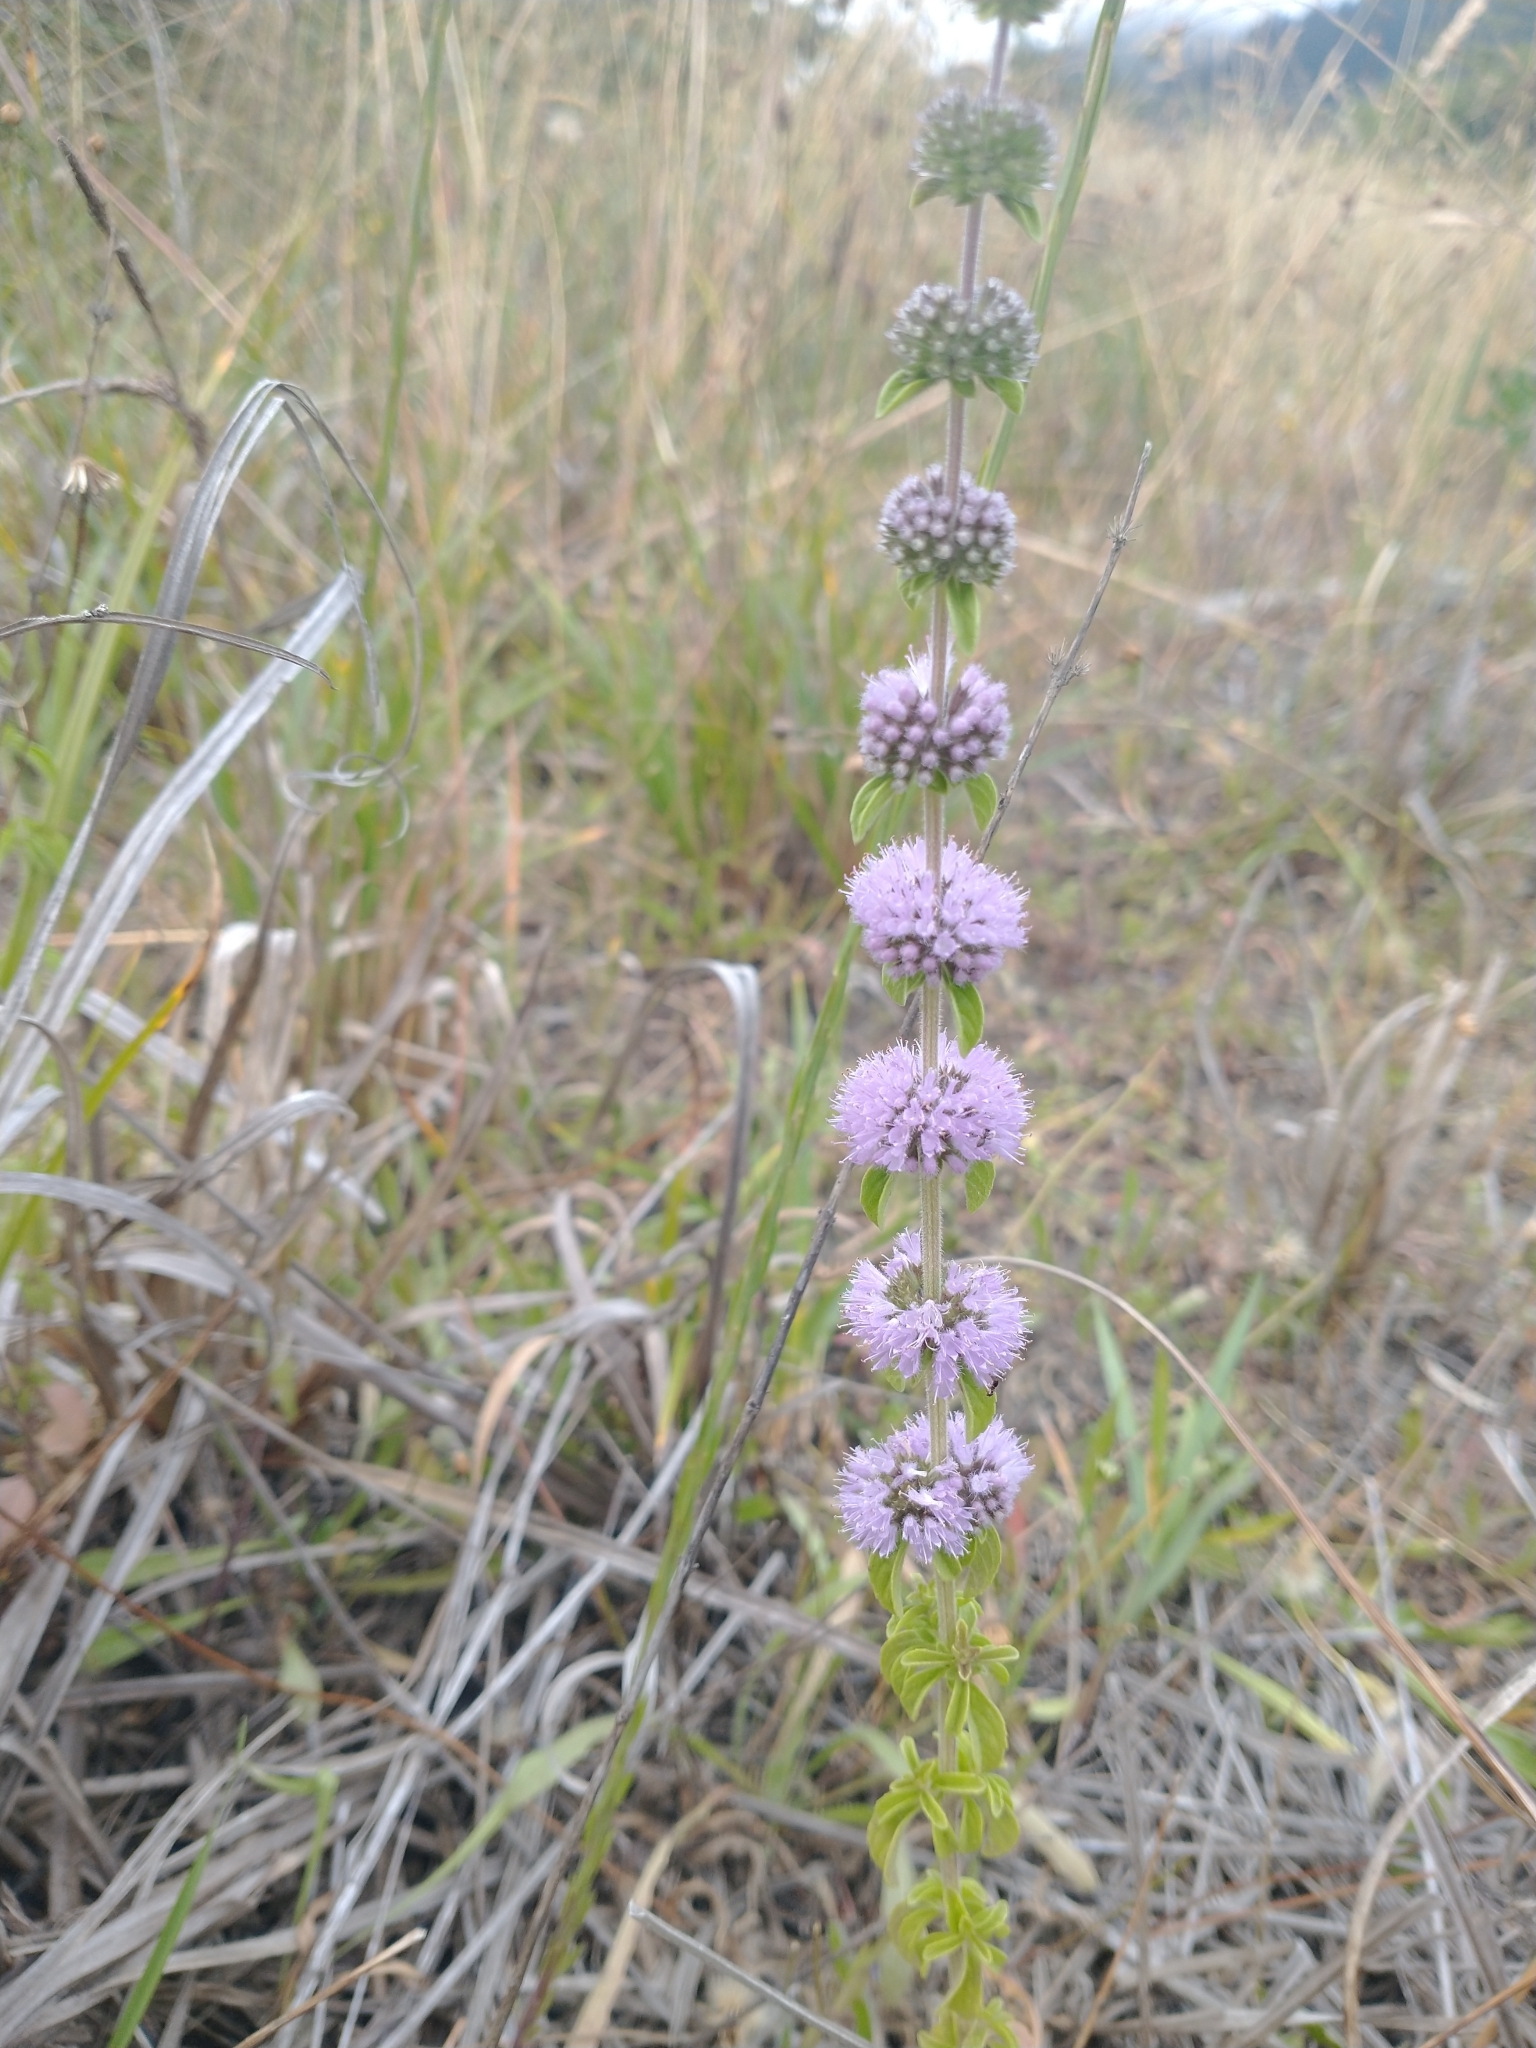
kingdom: Plantae
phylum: Tracheophyta
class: Magnoliopsida
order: Lamiales
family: Lamiaceae
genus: Mentha
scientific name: Mentha pulegium
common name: Pennyroyal
